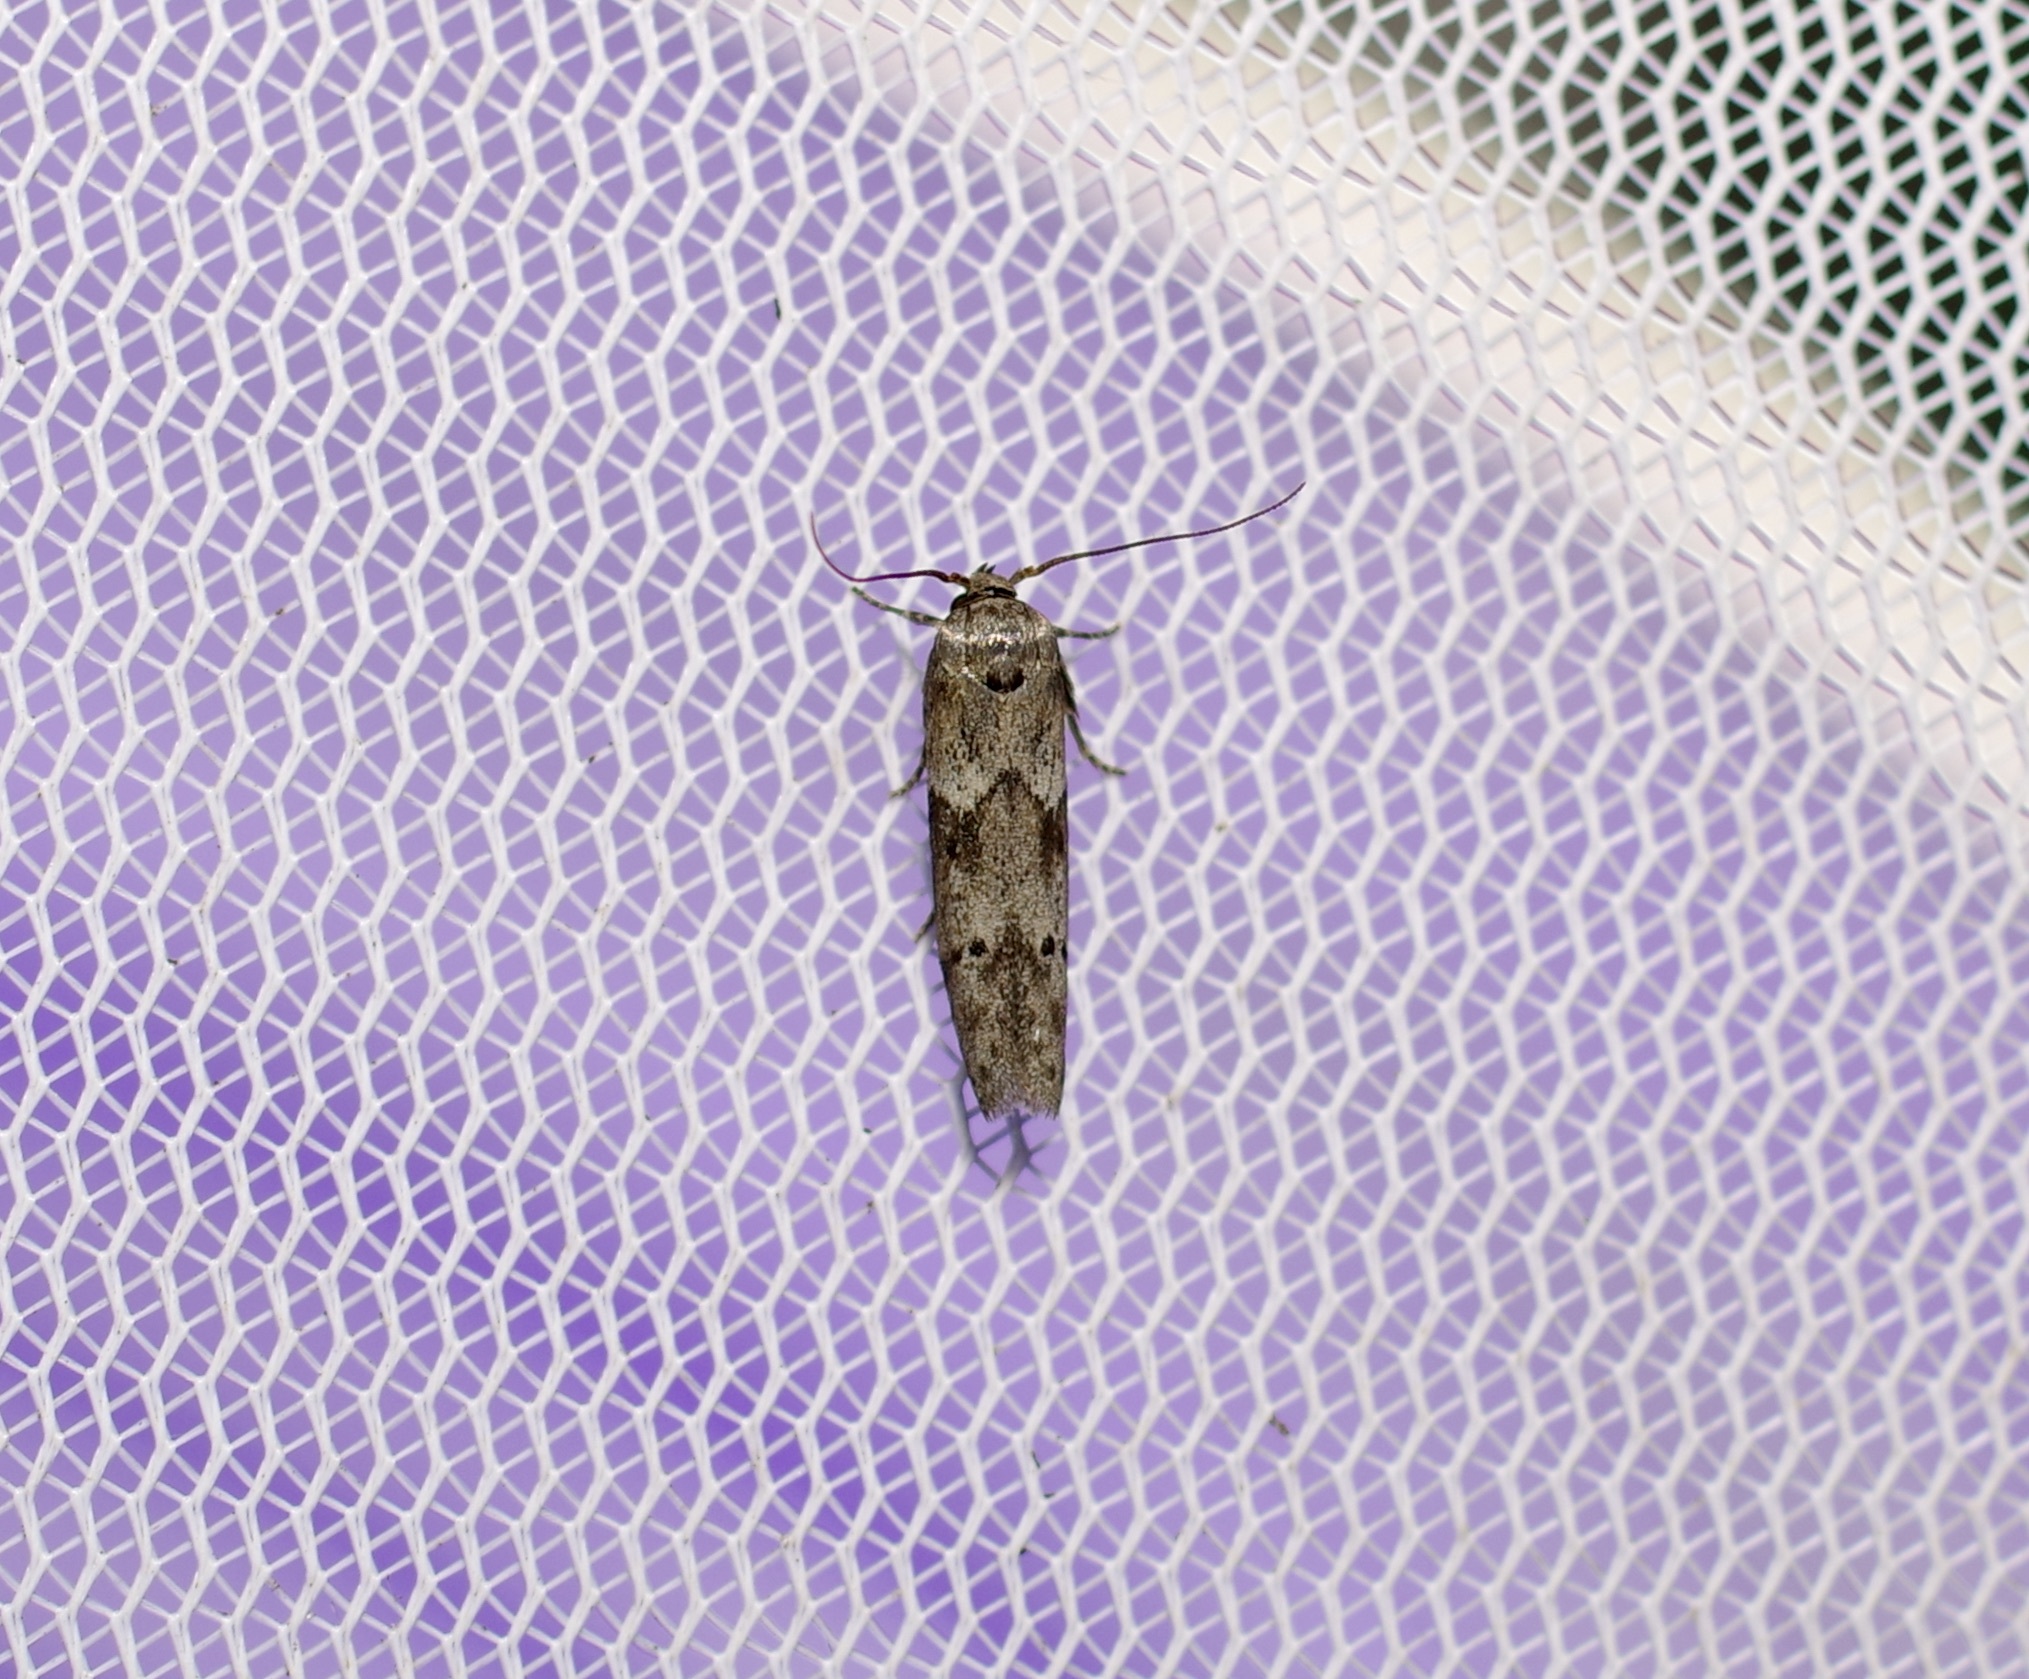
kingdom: Animalia
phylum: Arthropoda
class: Insecta
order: Lepidoptera
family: Blastobasidae
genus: Blastobasis
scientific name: Blastobasis glandulella
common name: Acorn moth
